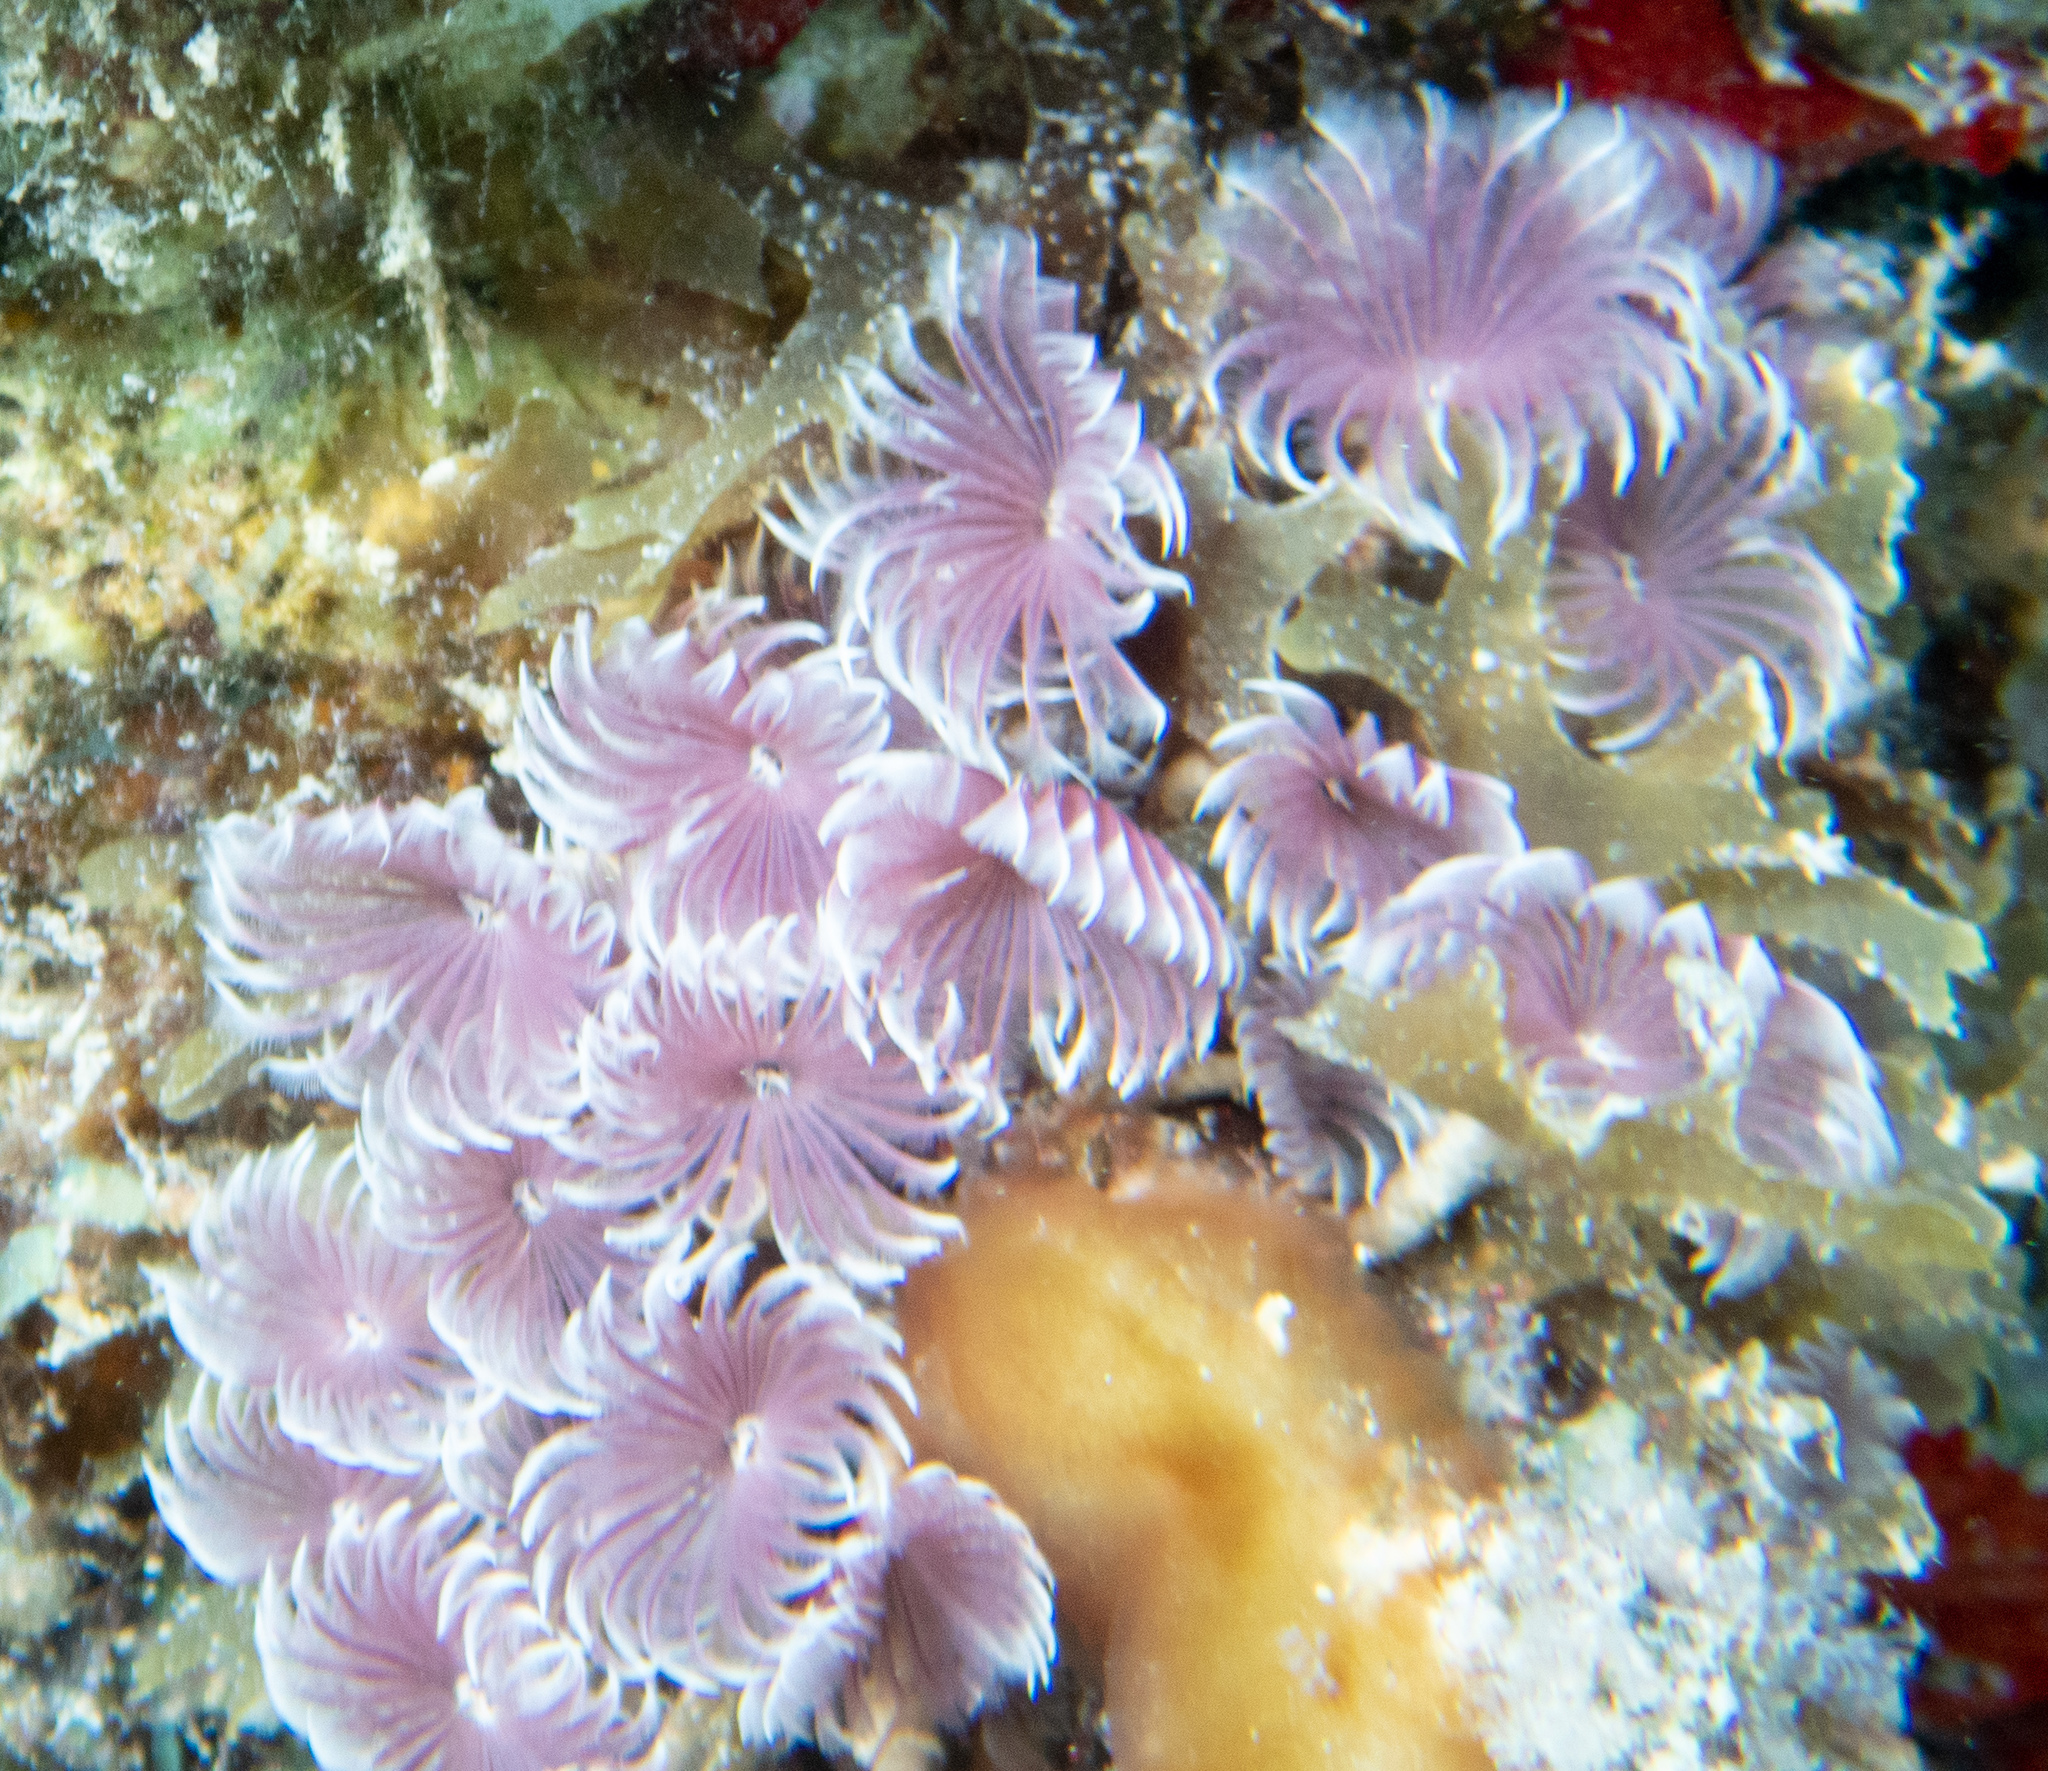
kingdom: Animalia
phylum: Annelida
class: Polychaeta
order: Sabellida
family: Sabellidae
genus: Bispira
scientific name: Bispira brunnea
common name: Social feather duster
